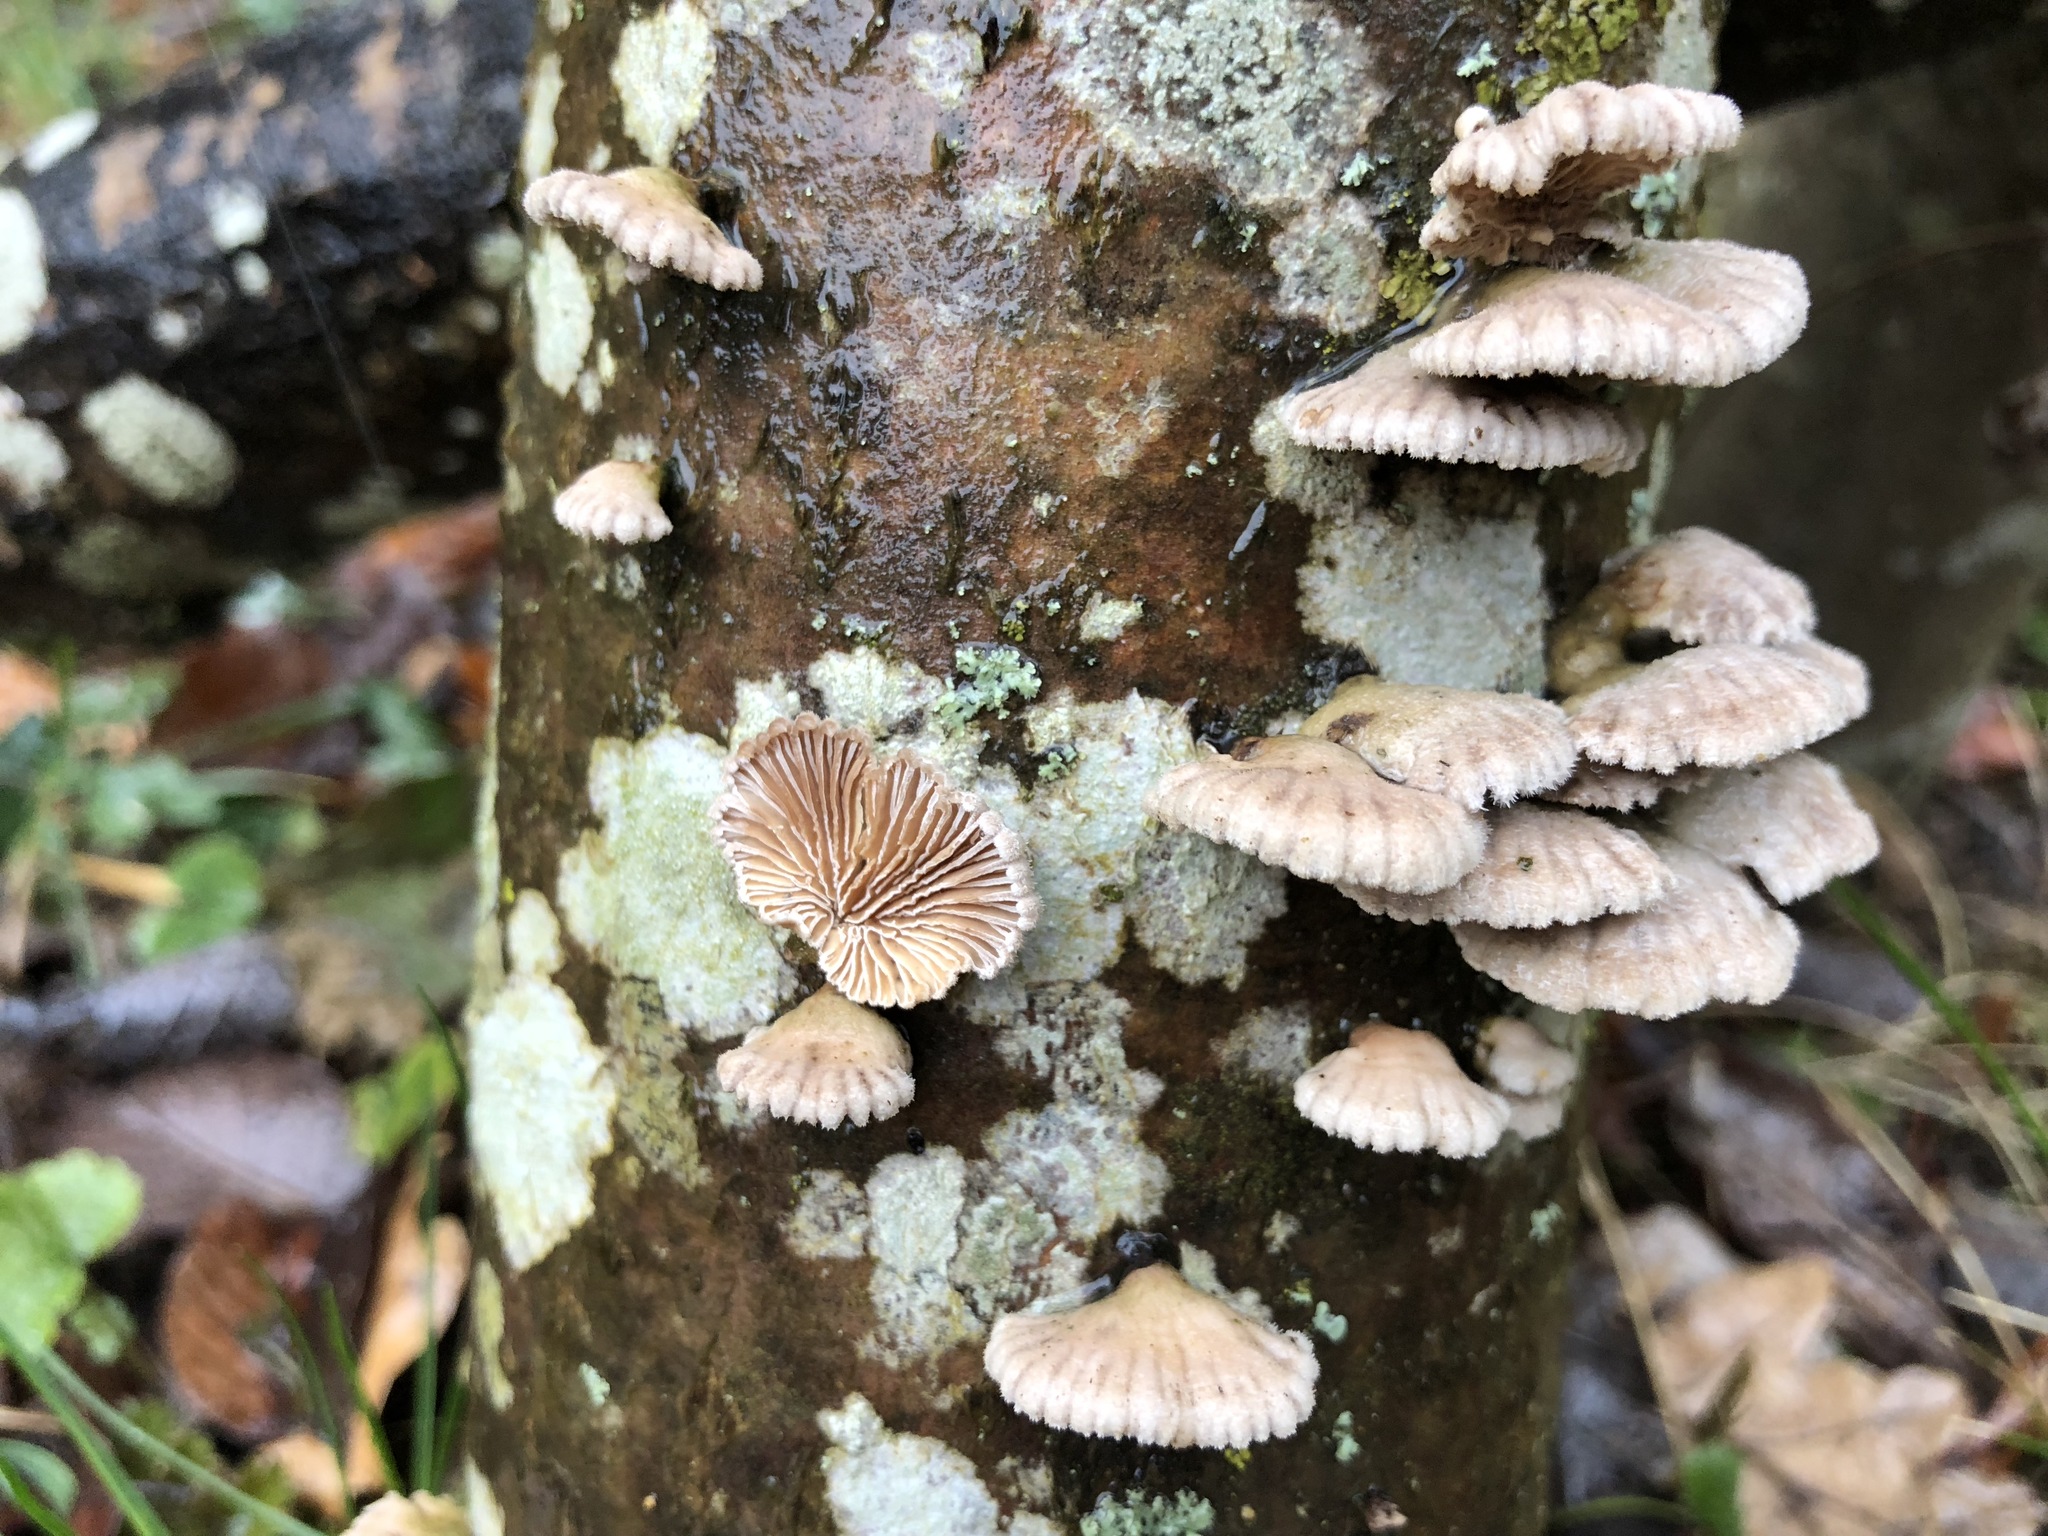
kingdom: Fungi
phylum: Basidiomycota
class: Agaricomycetes
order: Agaricales
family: Schizophyllaceae
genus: Schizophyllum
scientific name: Schizophyllum commune
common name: Common porecrust
